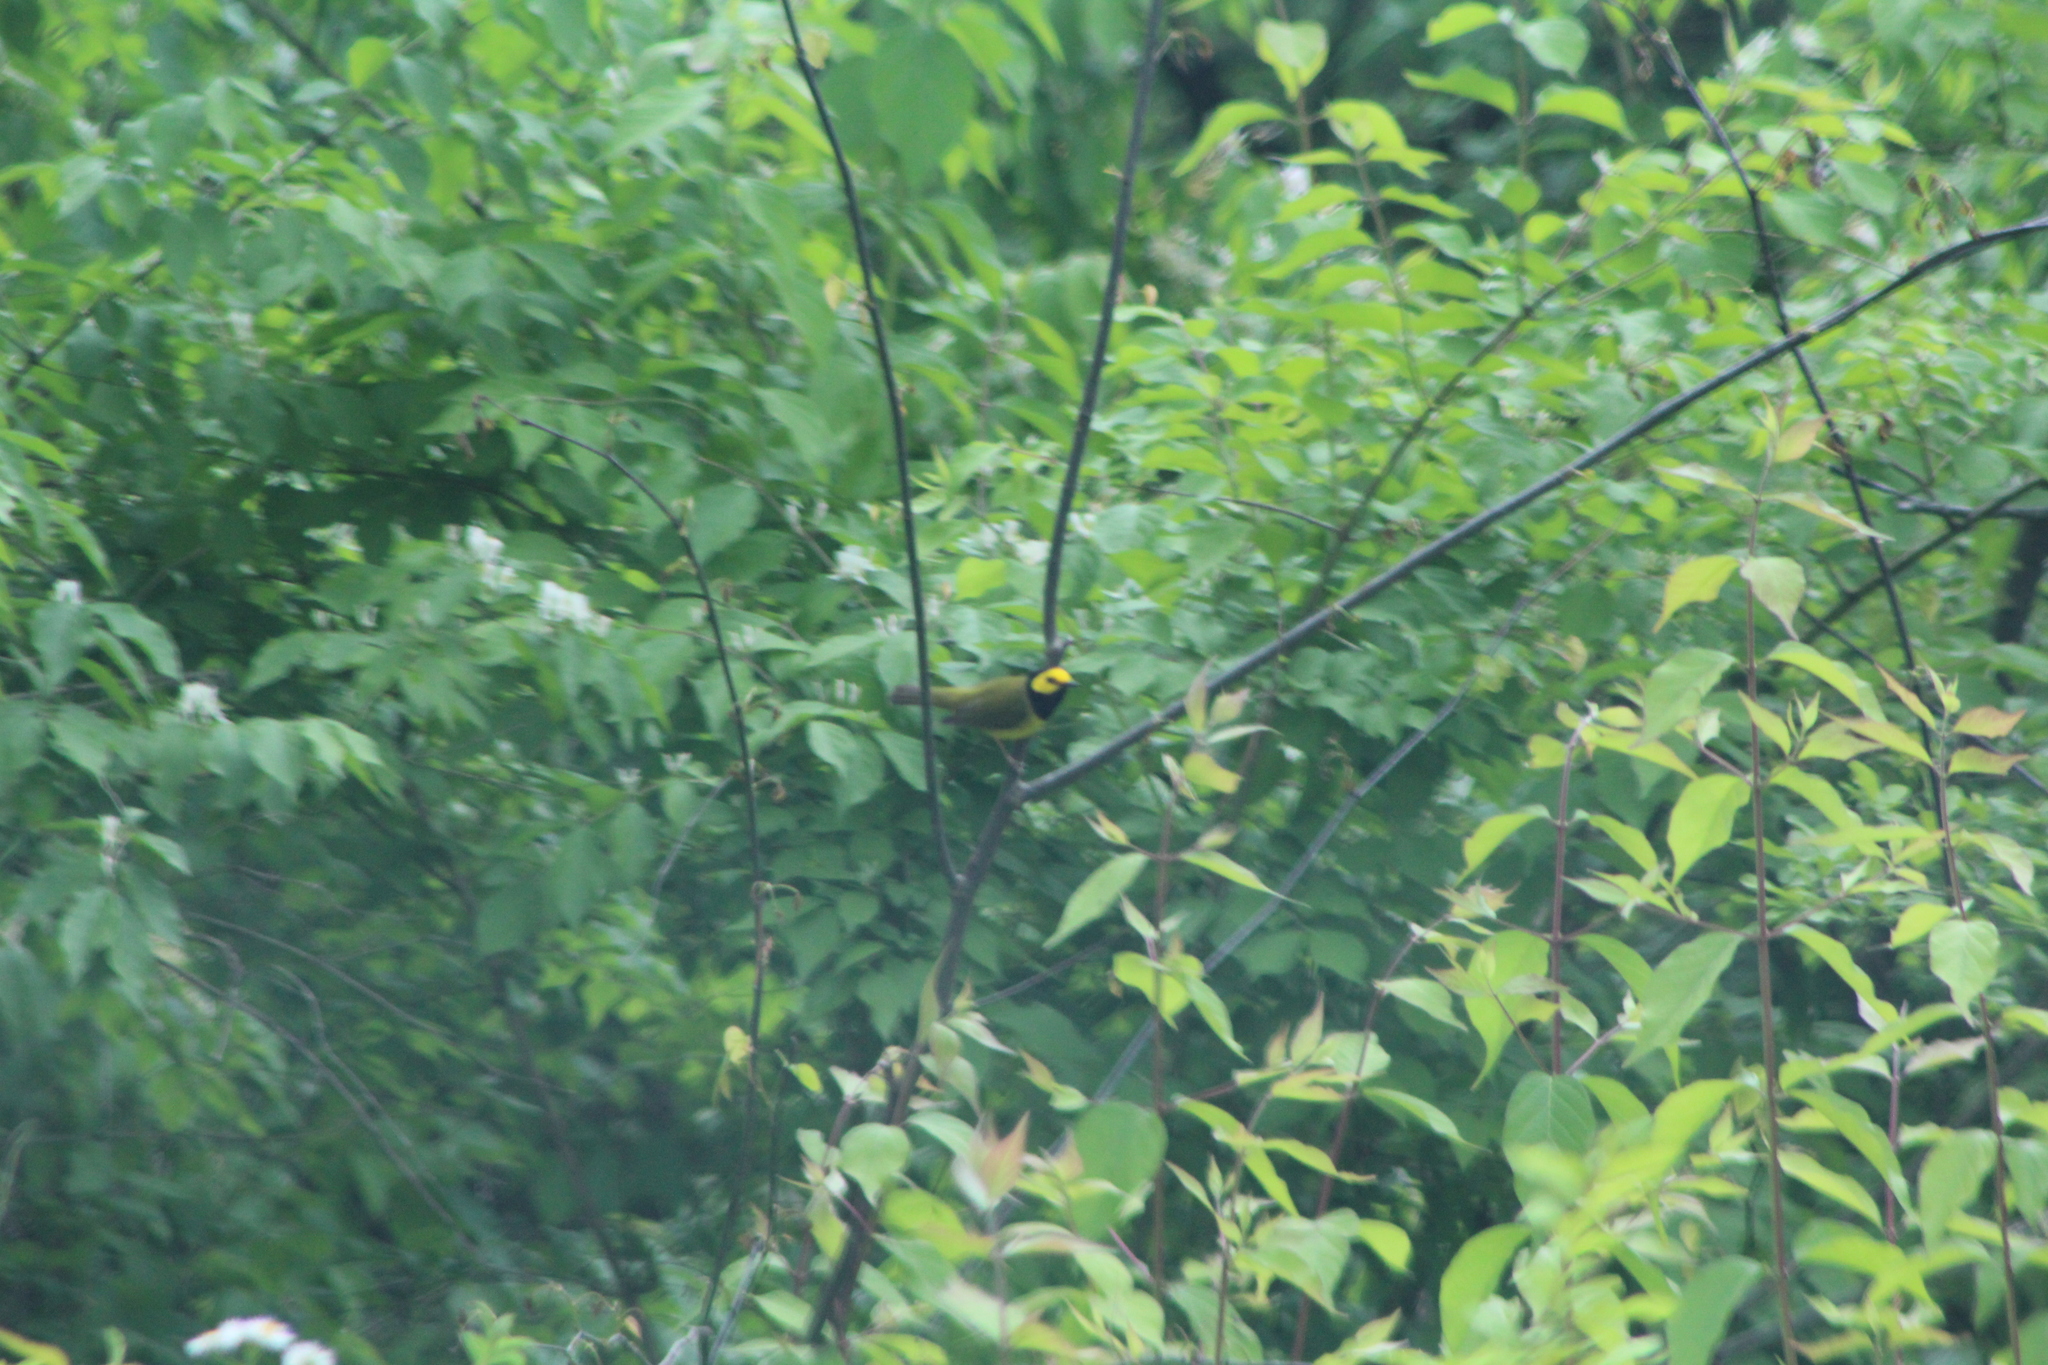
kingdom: Animalia
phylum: Chordata
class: Aves
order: Passeriformes
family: Parulidae
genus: Setophaga
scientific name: Setophaga citrina
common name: Hooded warbler
